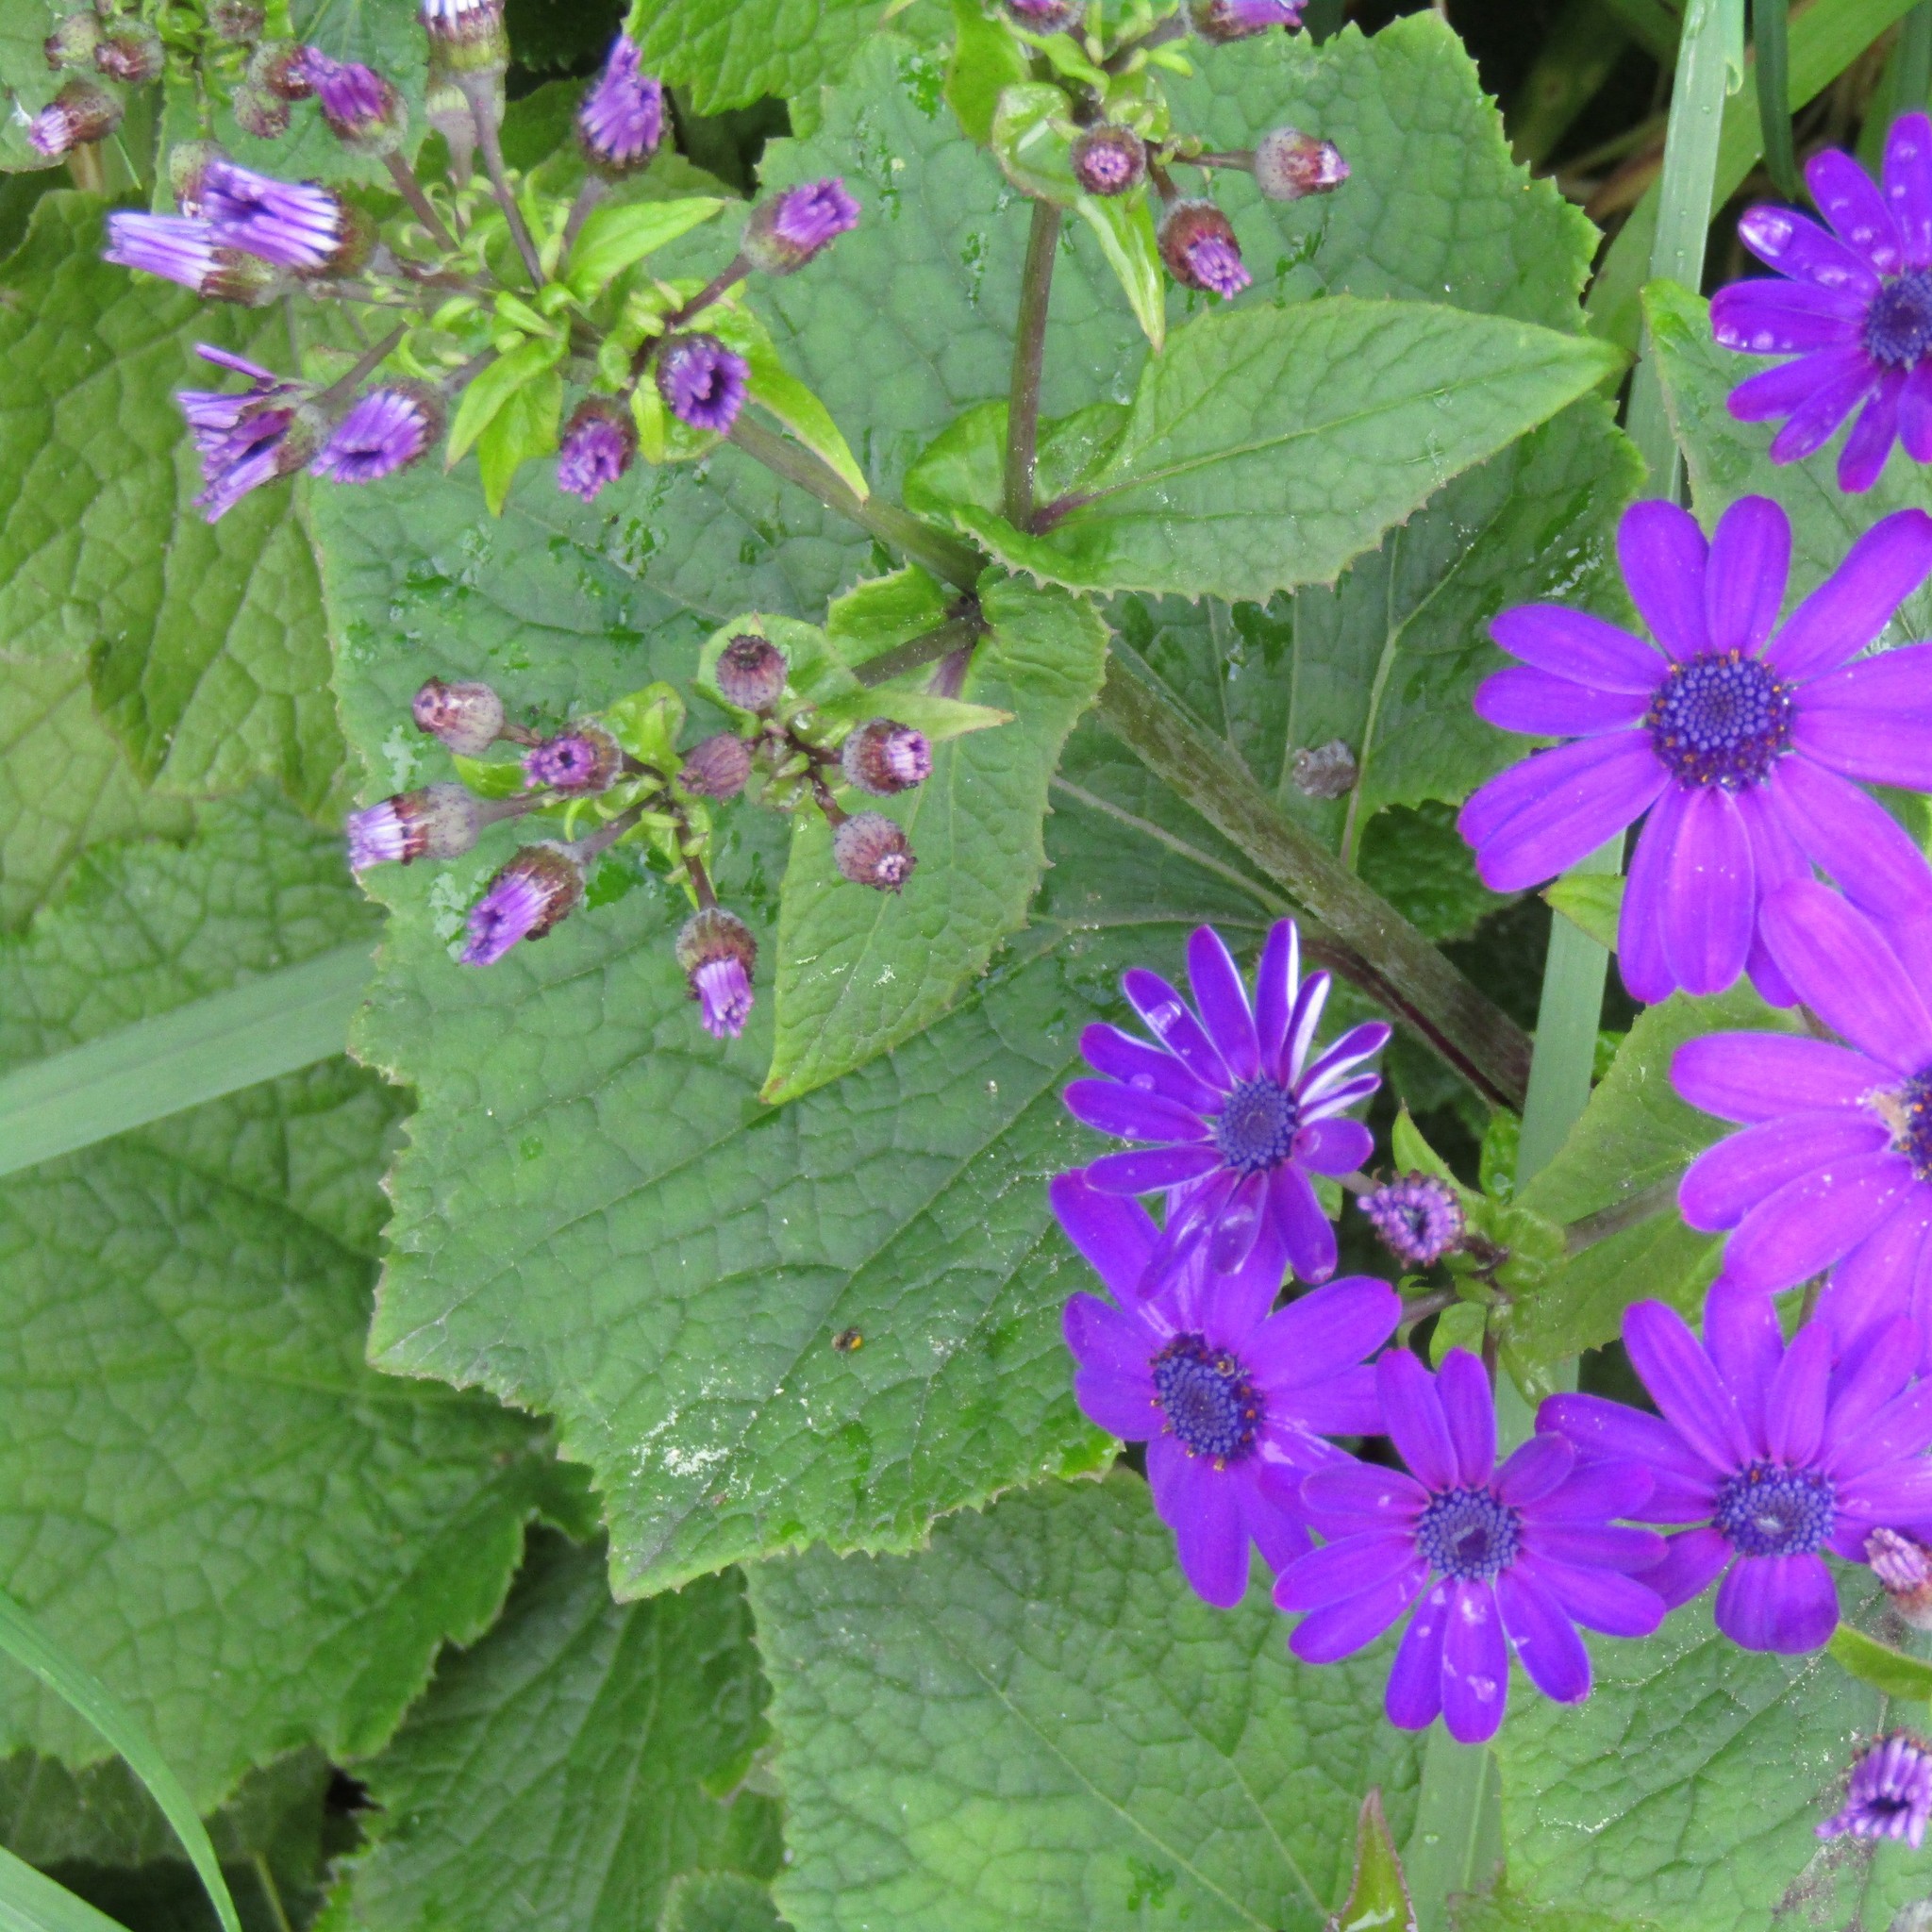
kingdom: Plantae
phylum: Tracheophyta
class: Magnoliopsida
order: Asterales
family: Asteraceae
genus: Pericallis
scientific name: Pericallis hybrida
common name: Cineraria
